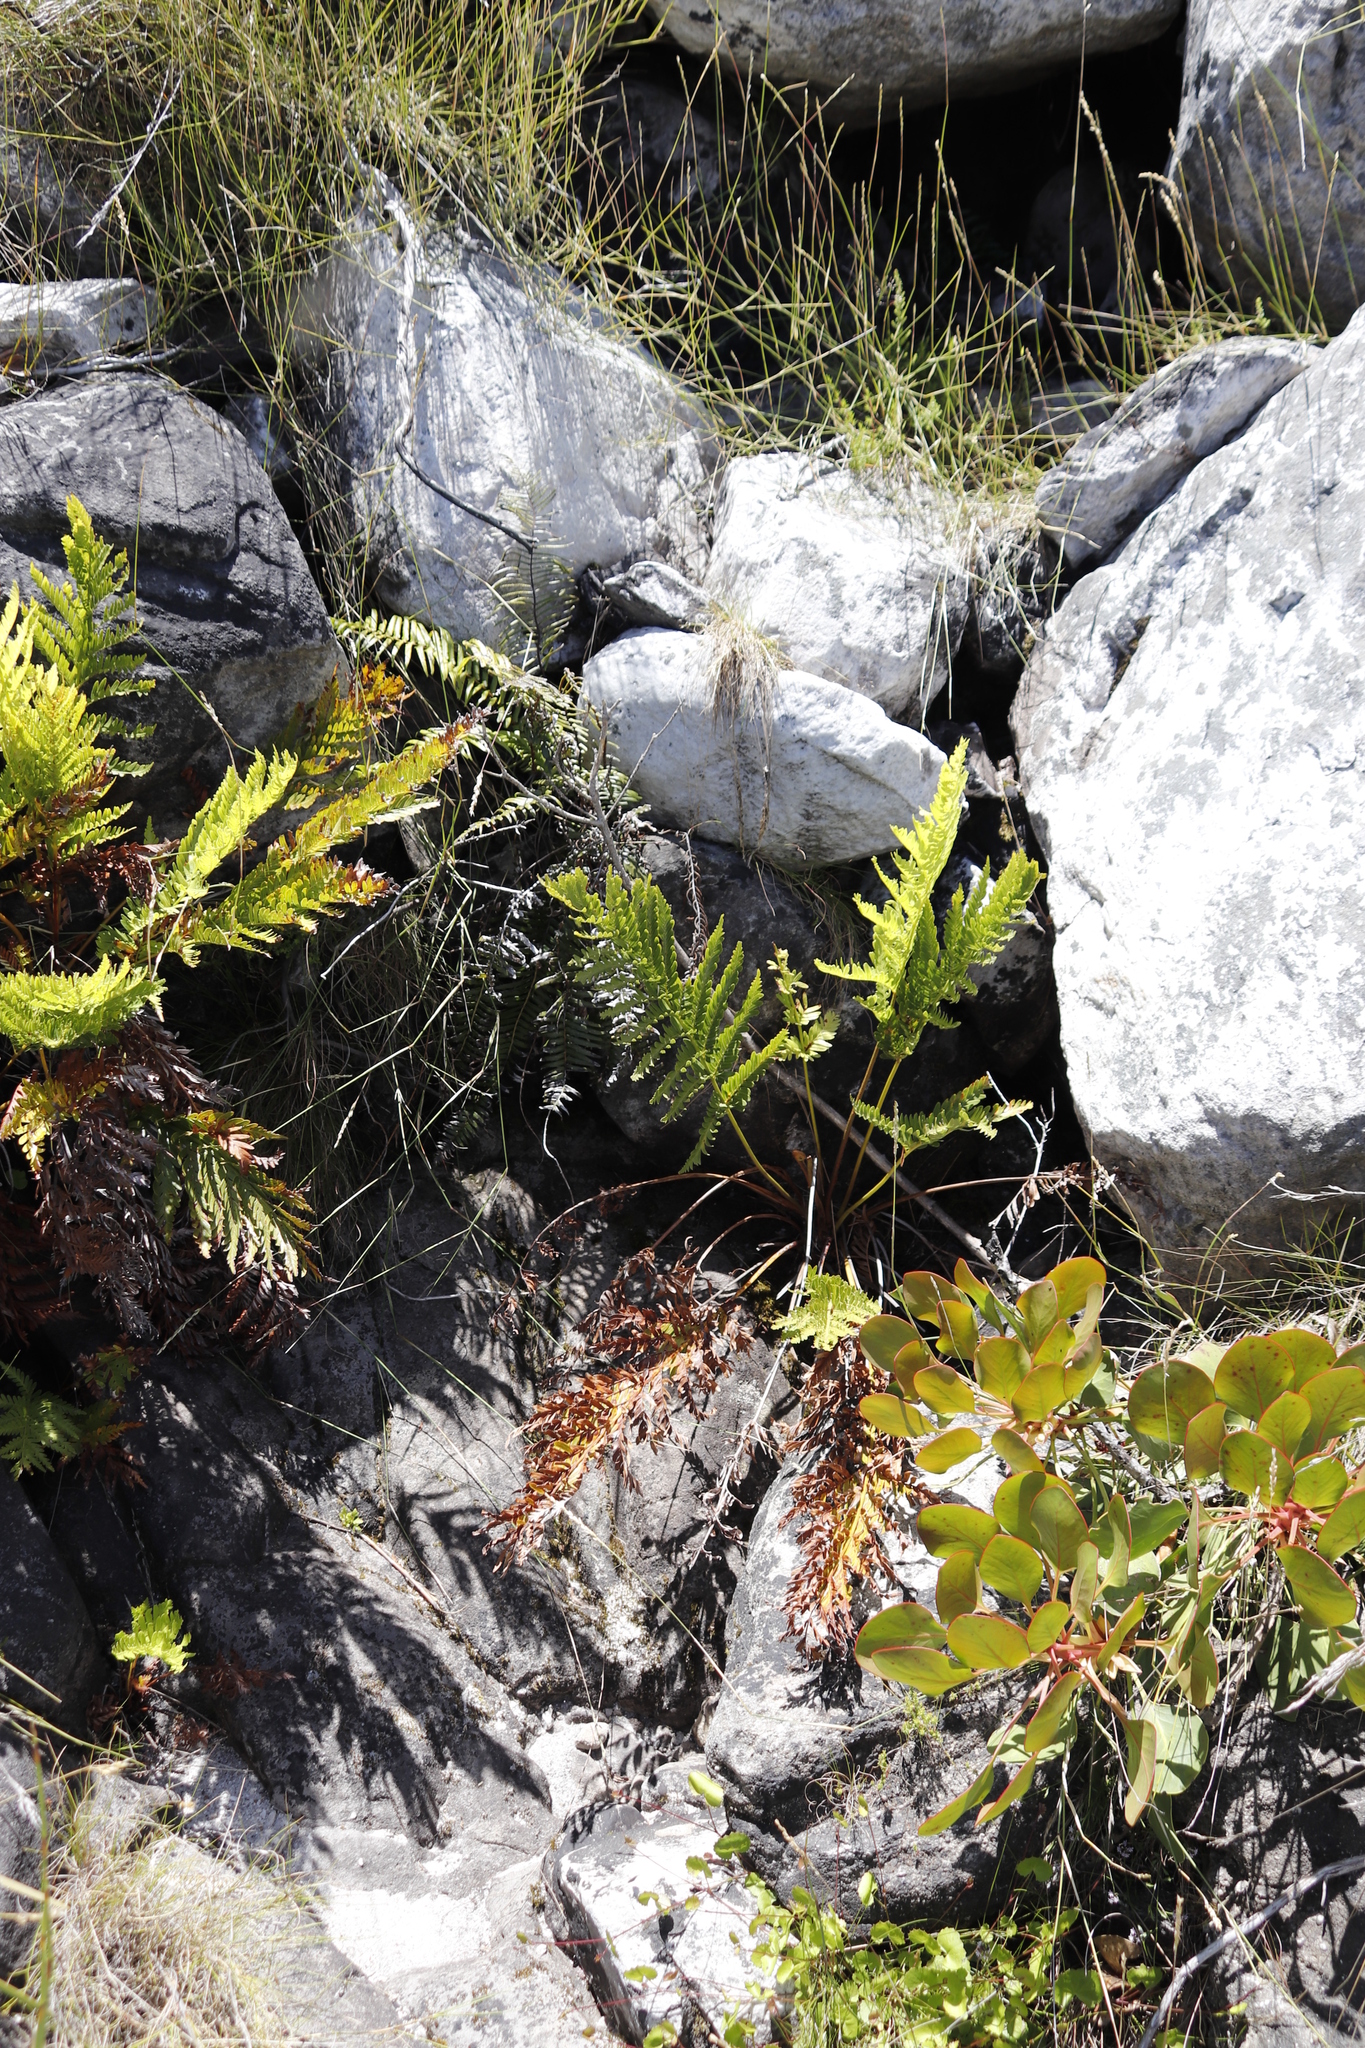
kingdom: Plantae
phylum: Tracheophyta
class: Polypodiopsida
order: Osmundales
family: Osmundaceae
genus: Todea
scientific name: Todea barbara
